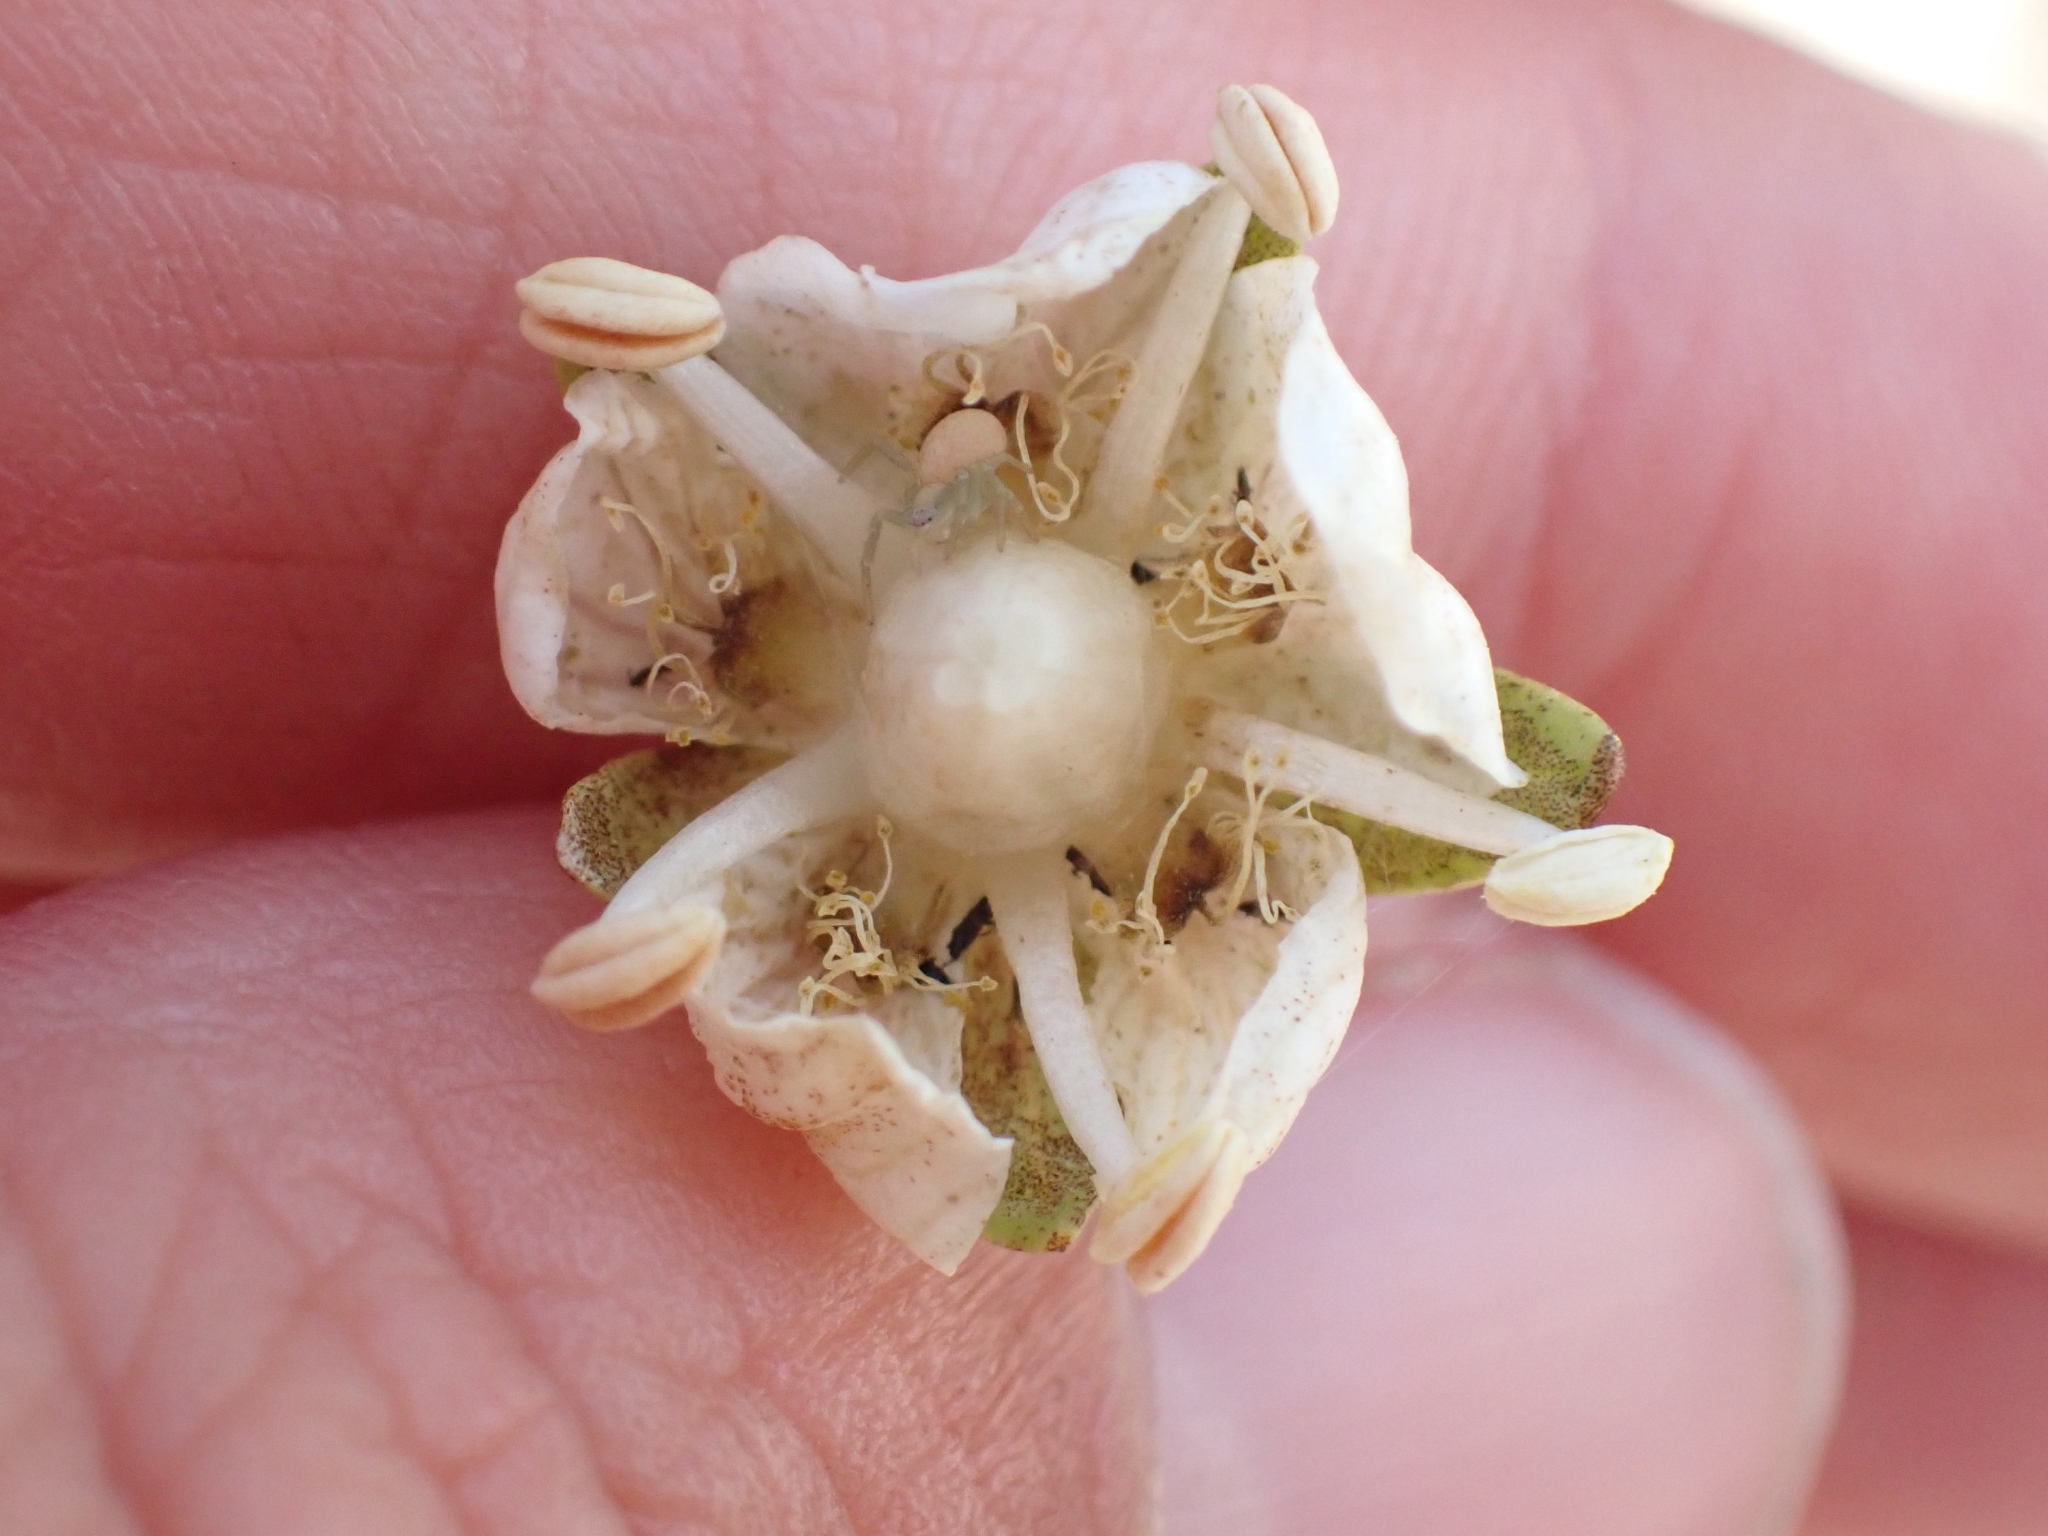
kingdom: Plantae
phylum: Tracheophyta
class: Magnoliopsida
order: Celastrales
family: Parnassiaceae
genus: Parnassia
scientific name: Parnassia palustris
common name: Grass-of-parnassus
